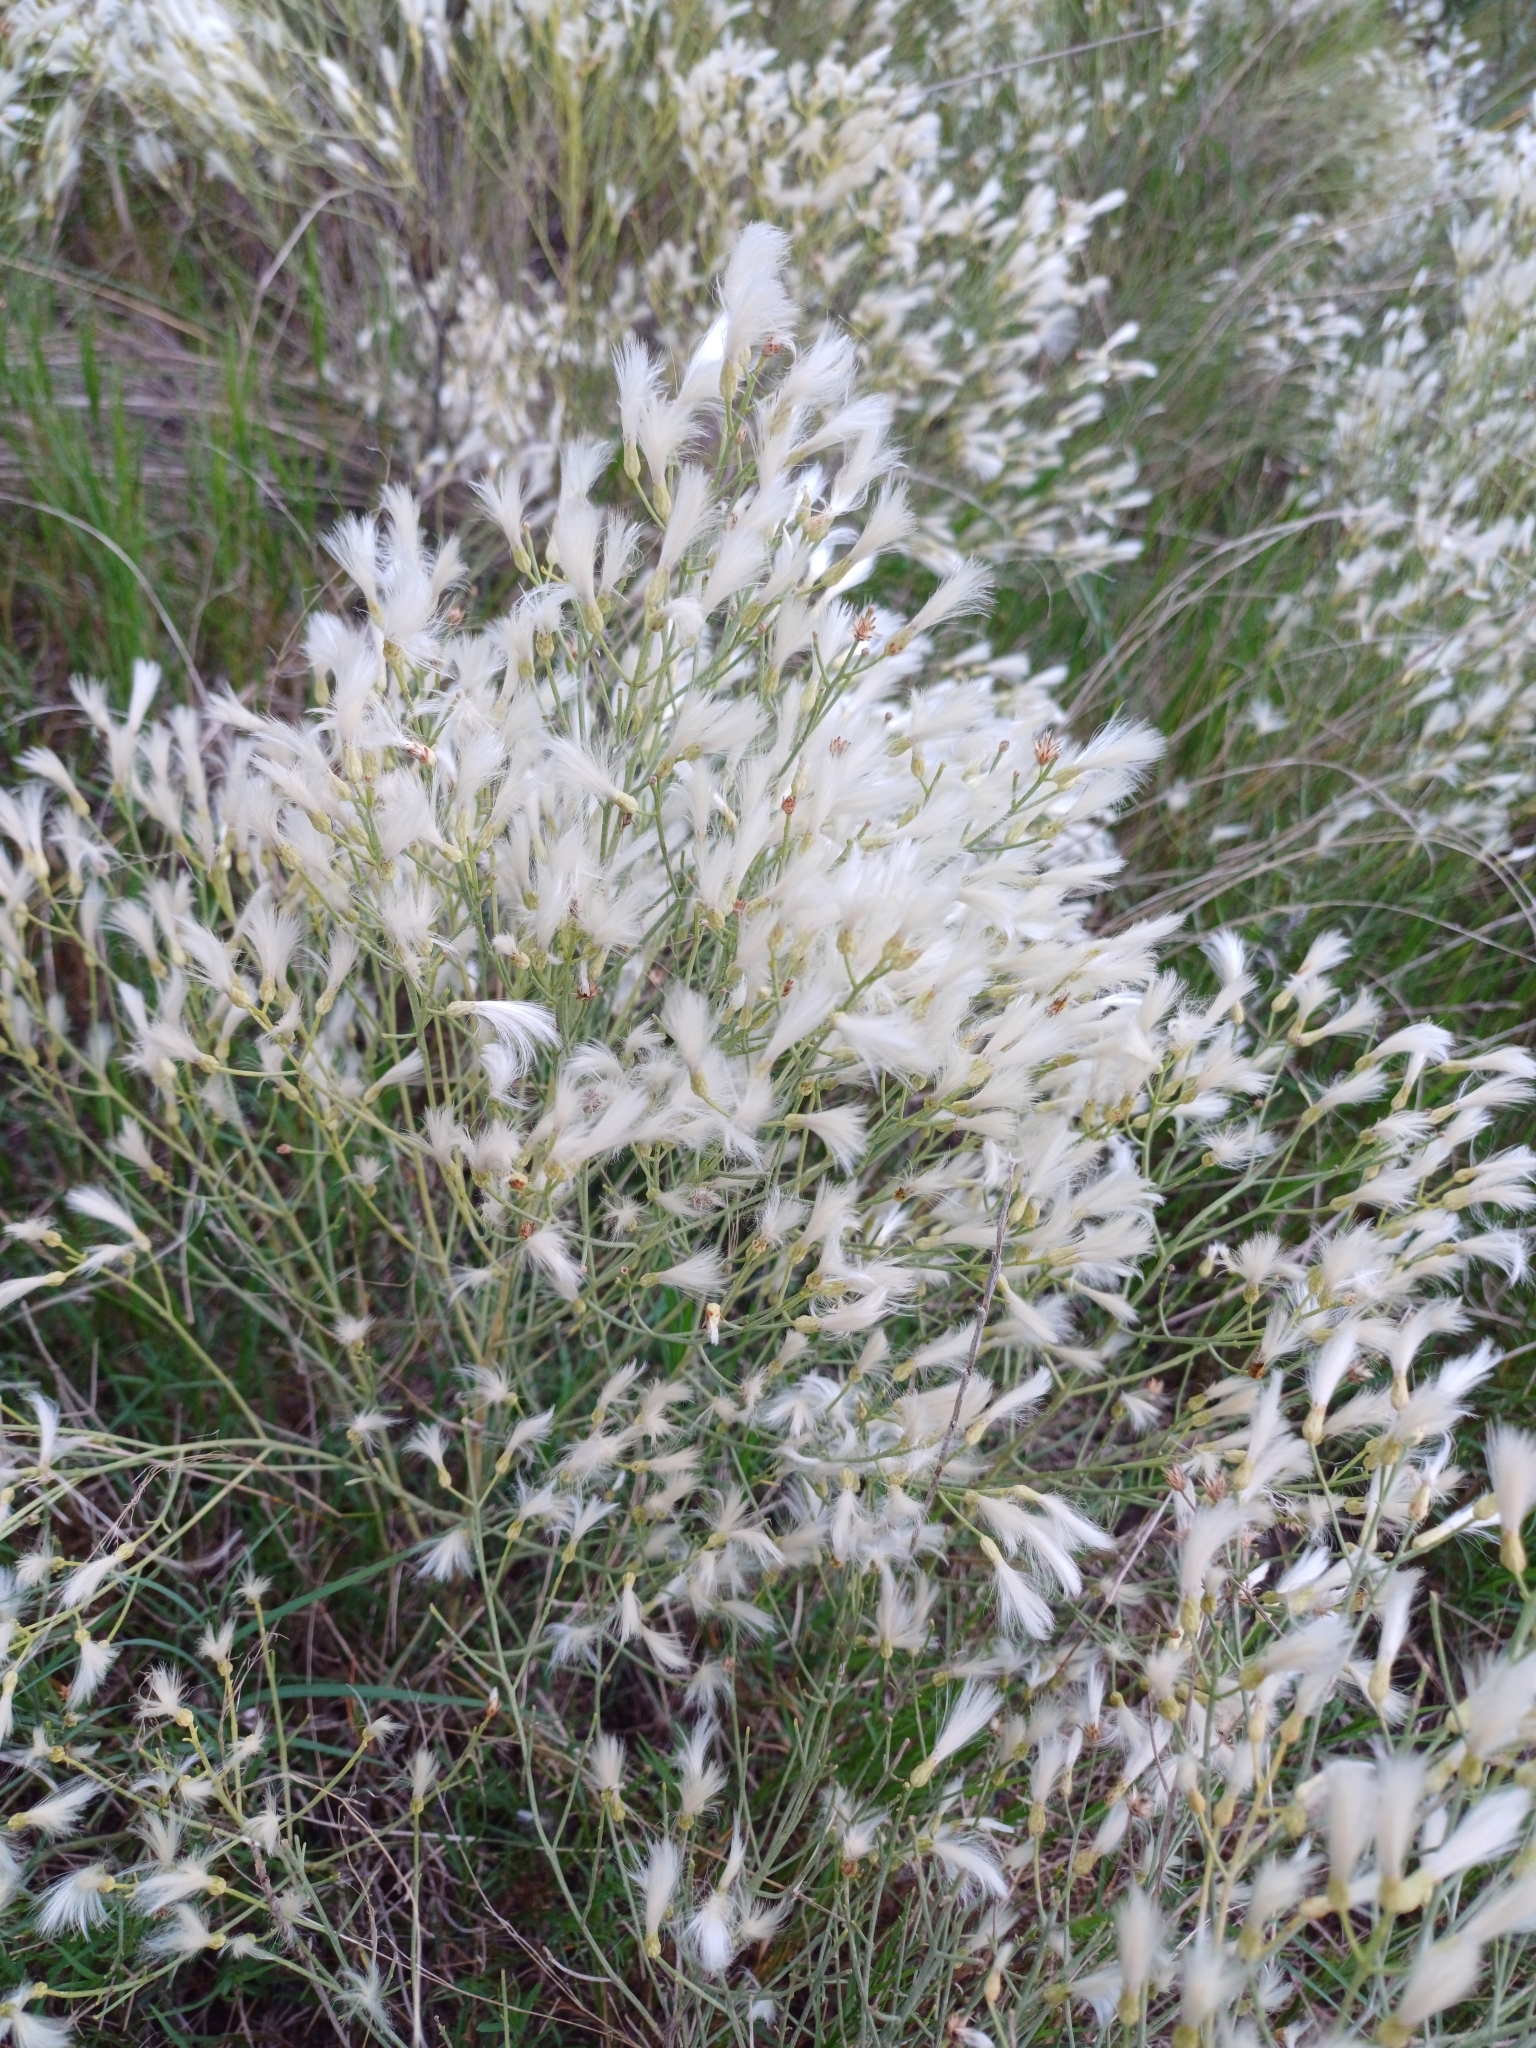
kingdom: Plantae
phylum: Tracheophyta
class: Magnoliopsida
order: Asterales
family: Asteraceae
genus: Baccharis
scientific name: Baccharis notosergila
